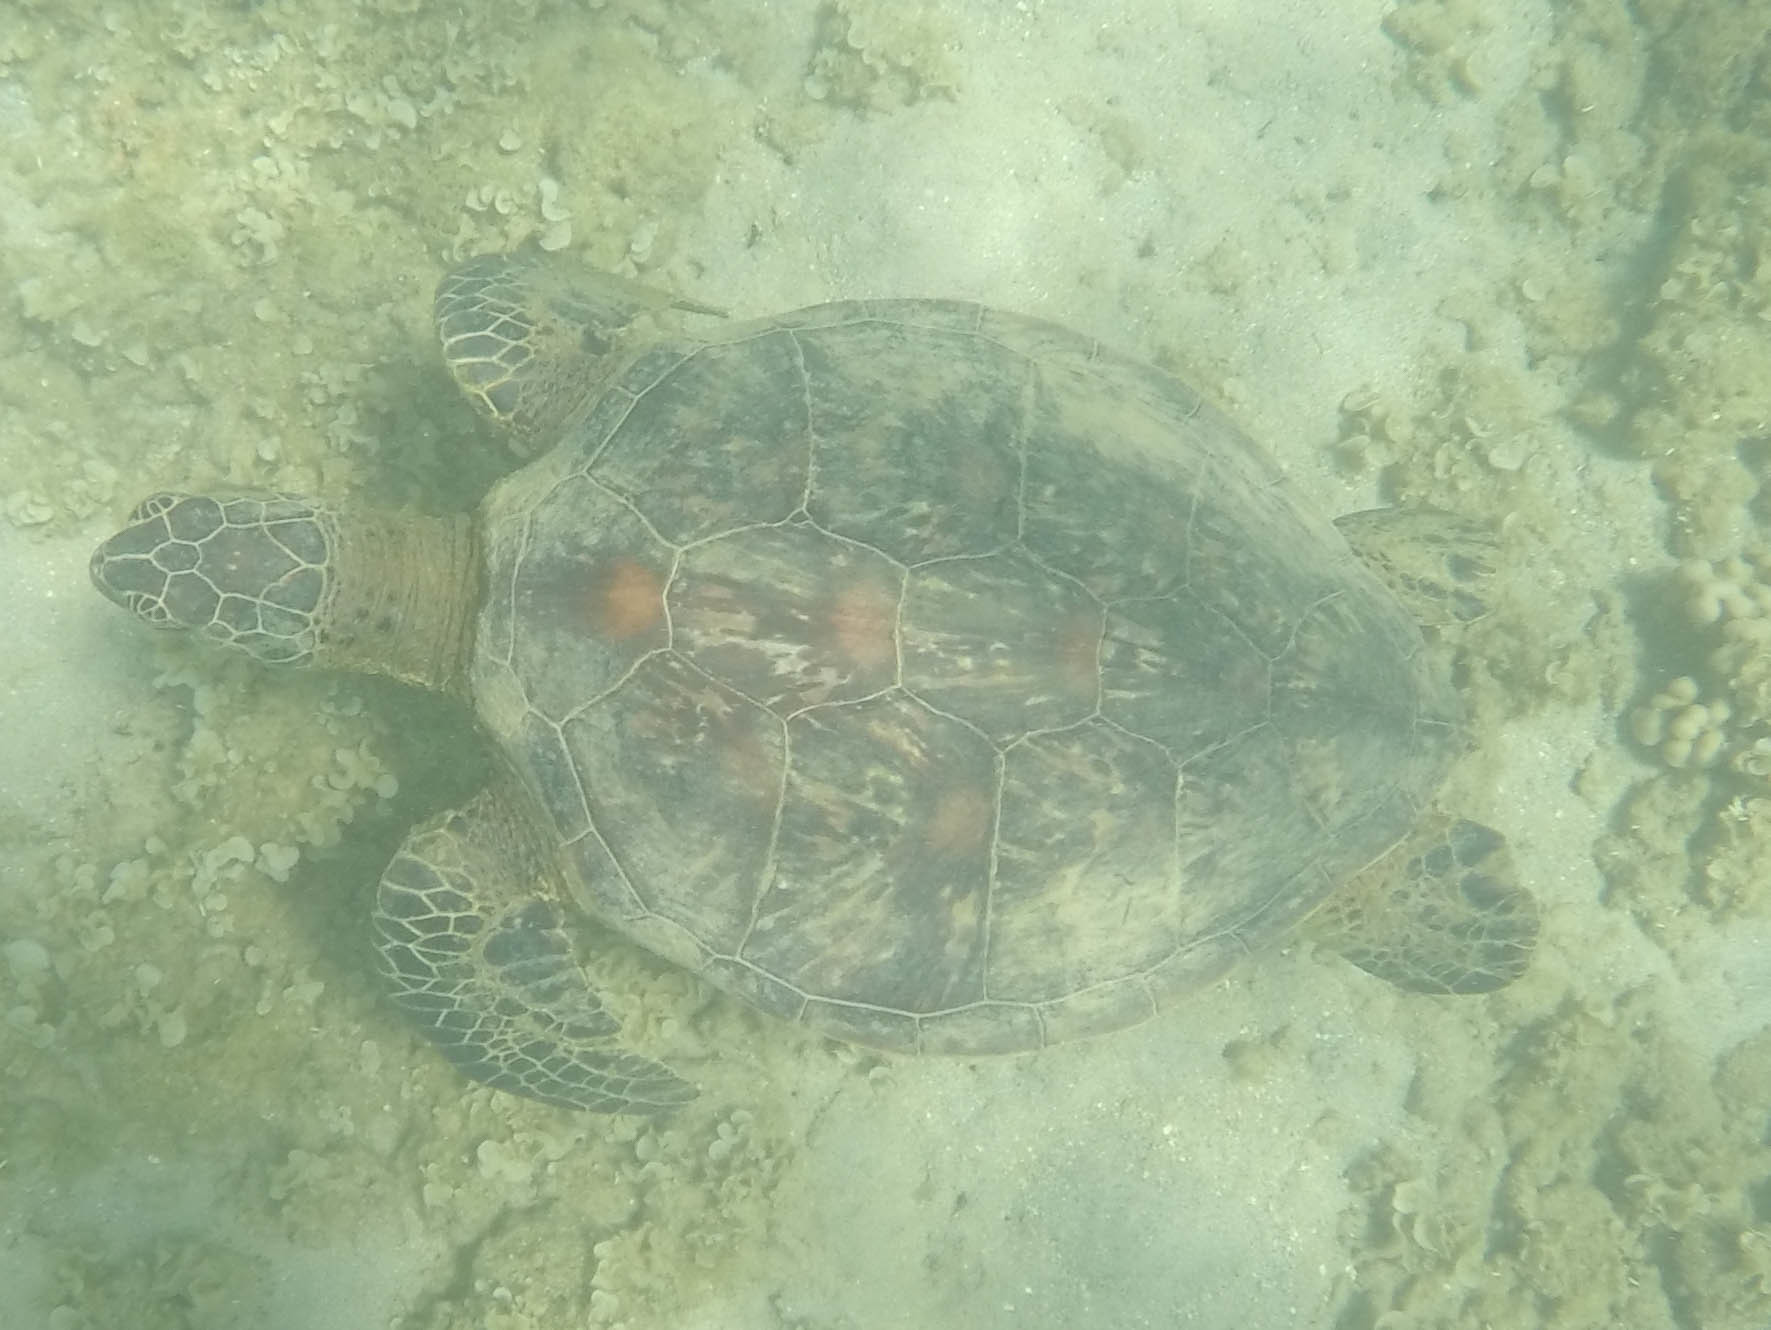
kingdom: Animalia
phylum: Chordata
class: Testudines
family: Cheloniidae
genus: Chelonia
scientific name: Chelonia mydas
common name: Green turtle
